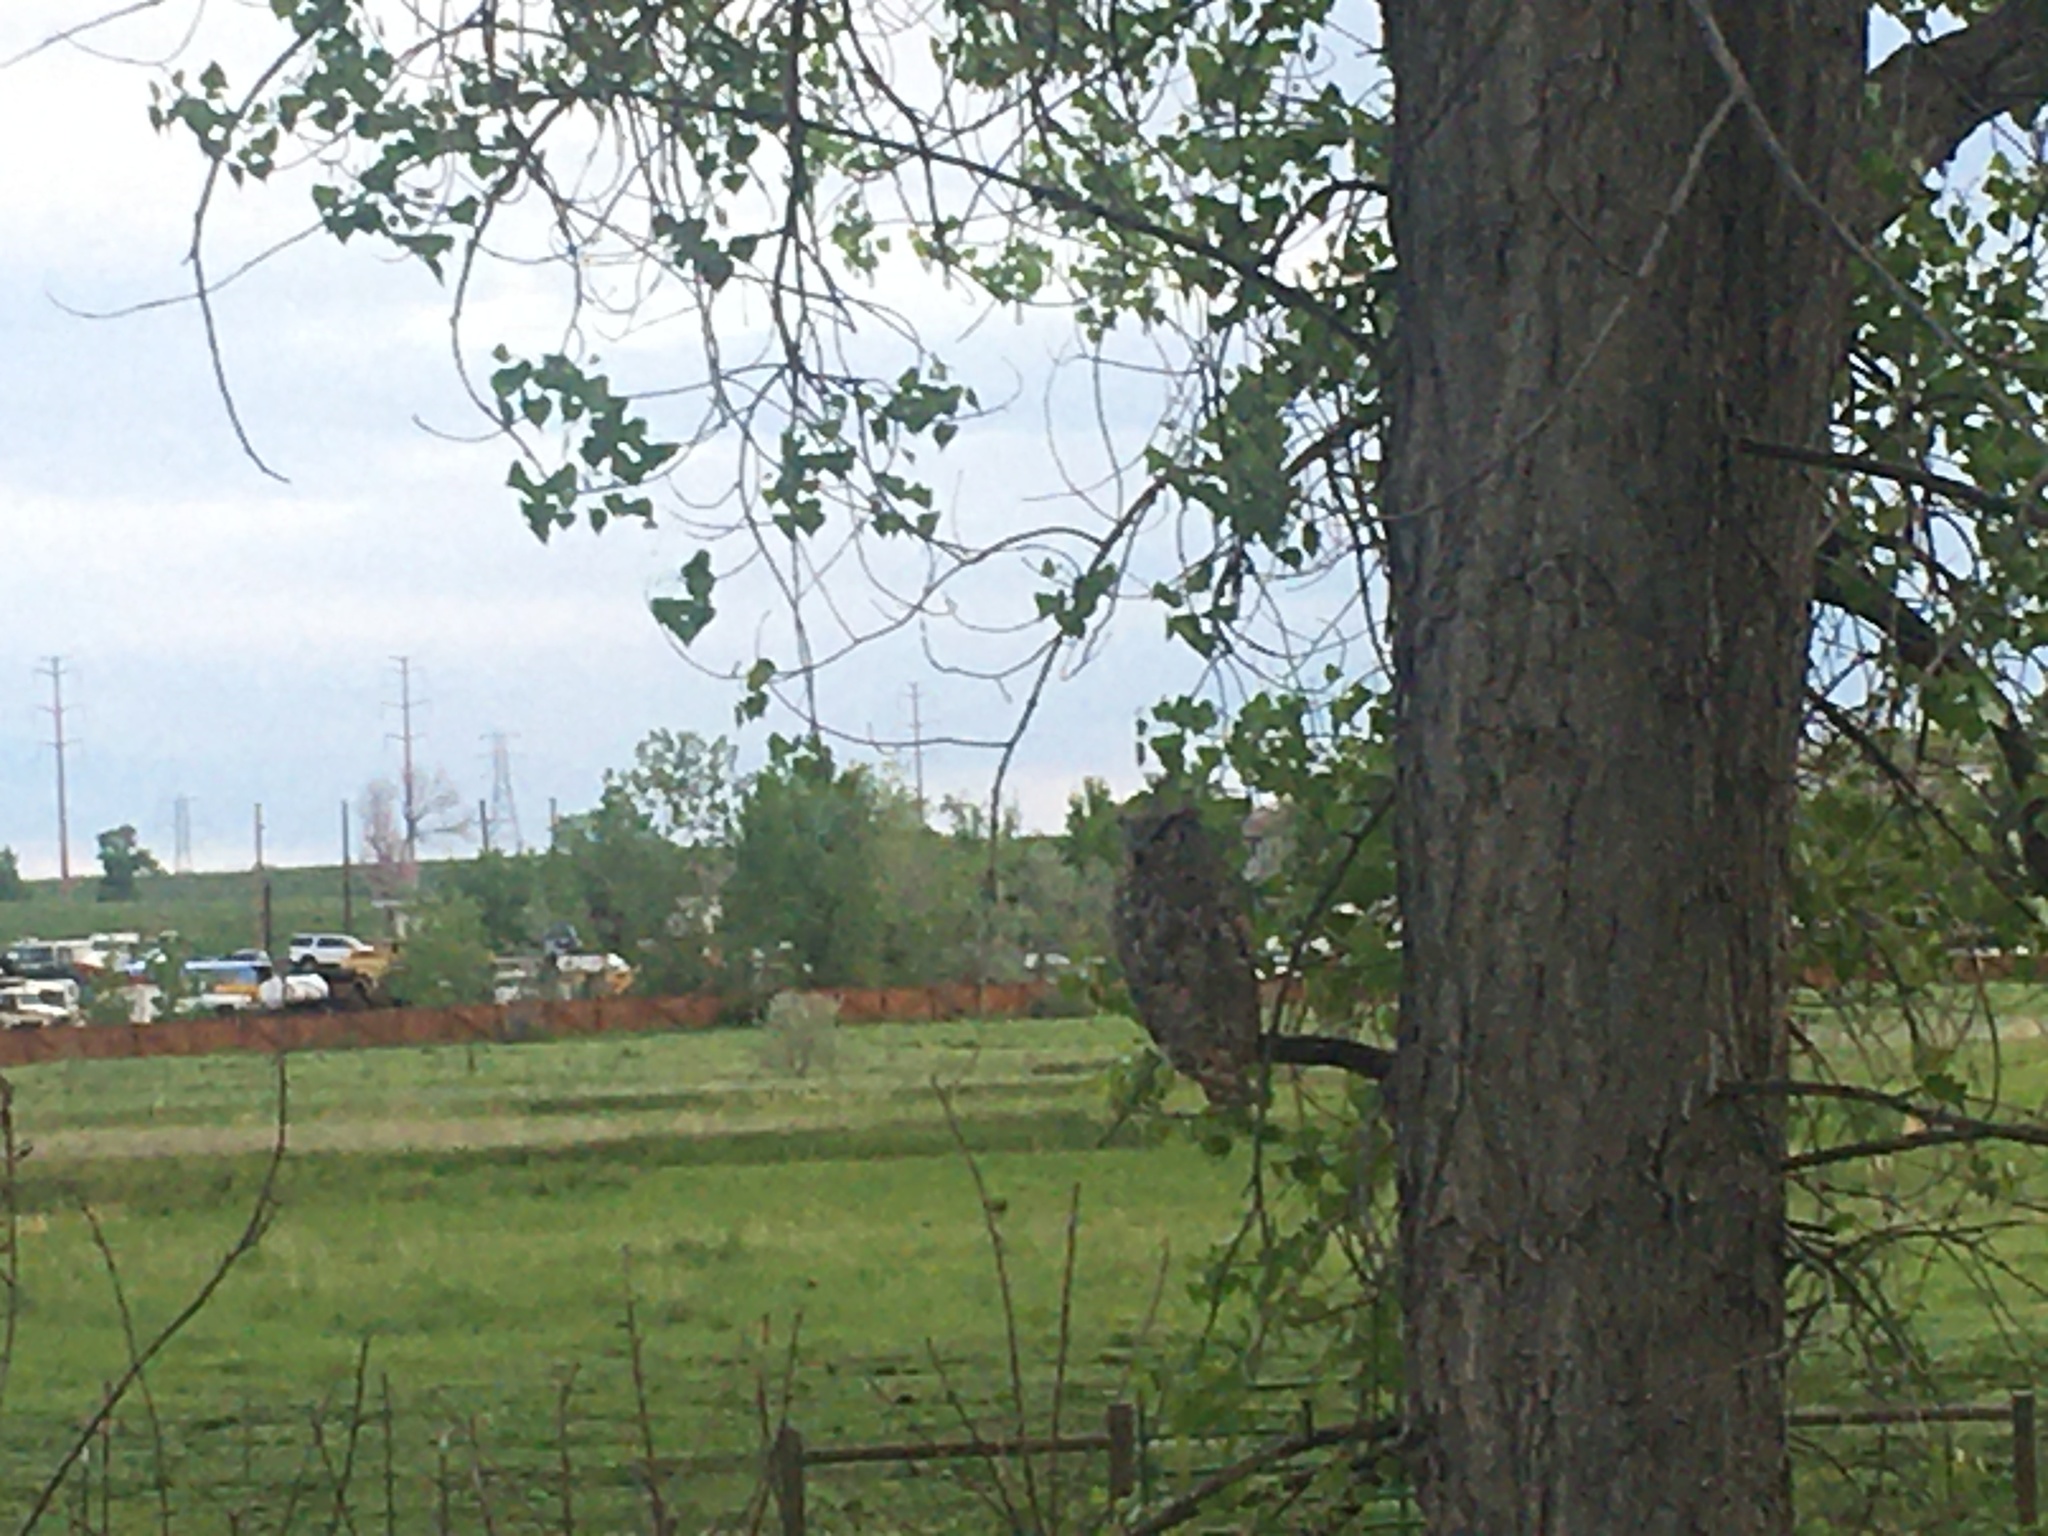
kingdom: Animalia
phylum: Chordata
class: Aves
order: Strigiformes
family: Strigidae
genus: Bubo
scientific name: Bubo virginianus
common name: Great horned owl
